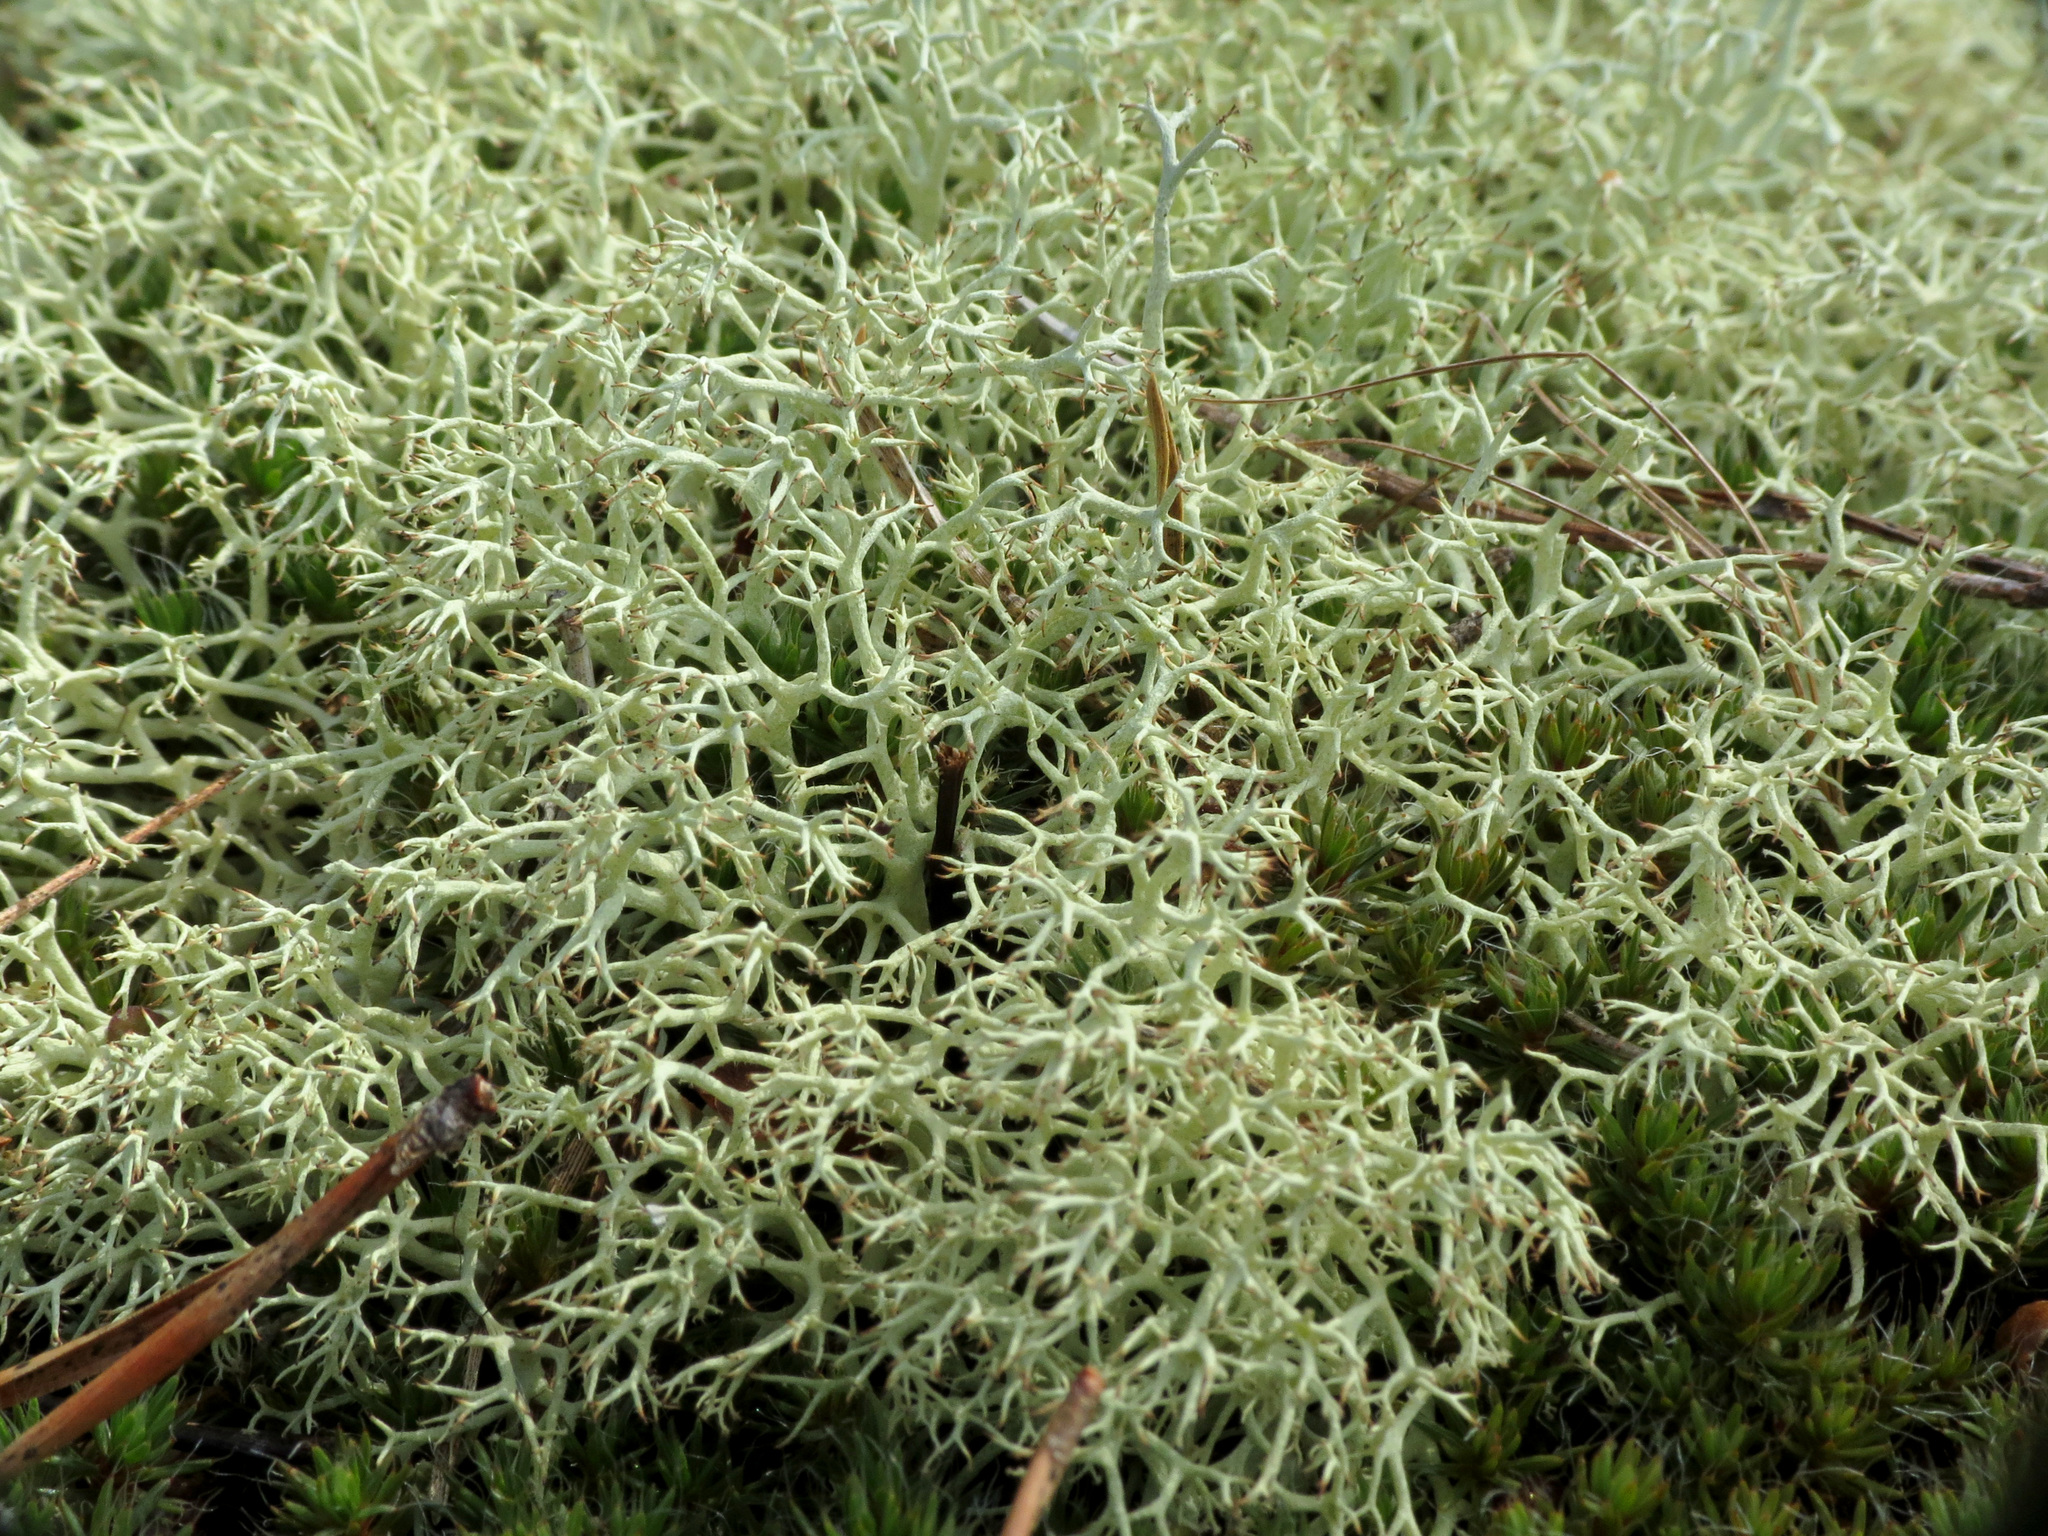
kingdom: Fungi
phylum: Ascomycota
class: Lecanoromycetes
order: Lecanorales
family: Cladoniaceae
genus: Cladonia
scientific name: Cladonia subtenuis
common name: Dixie reindeer lichen
